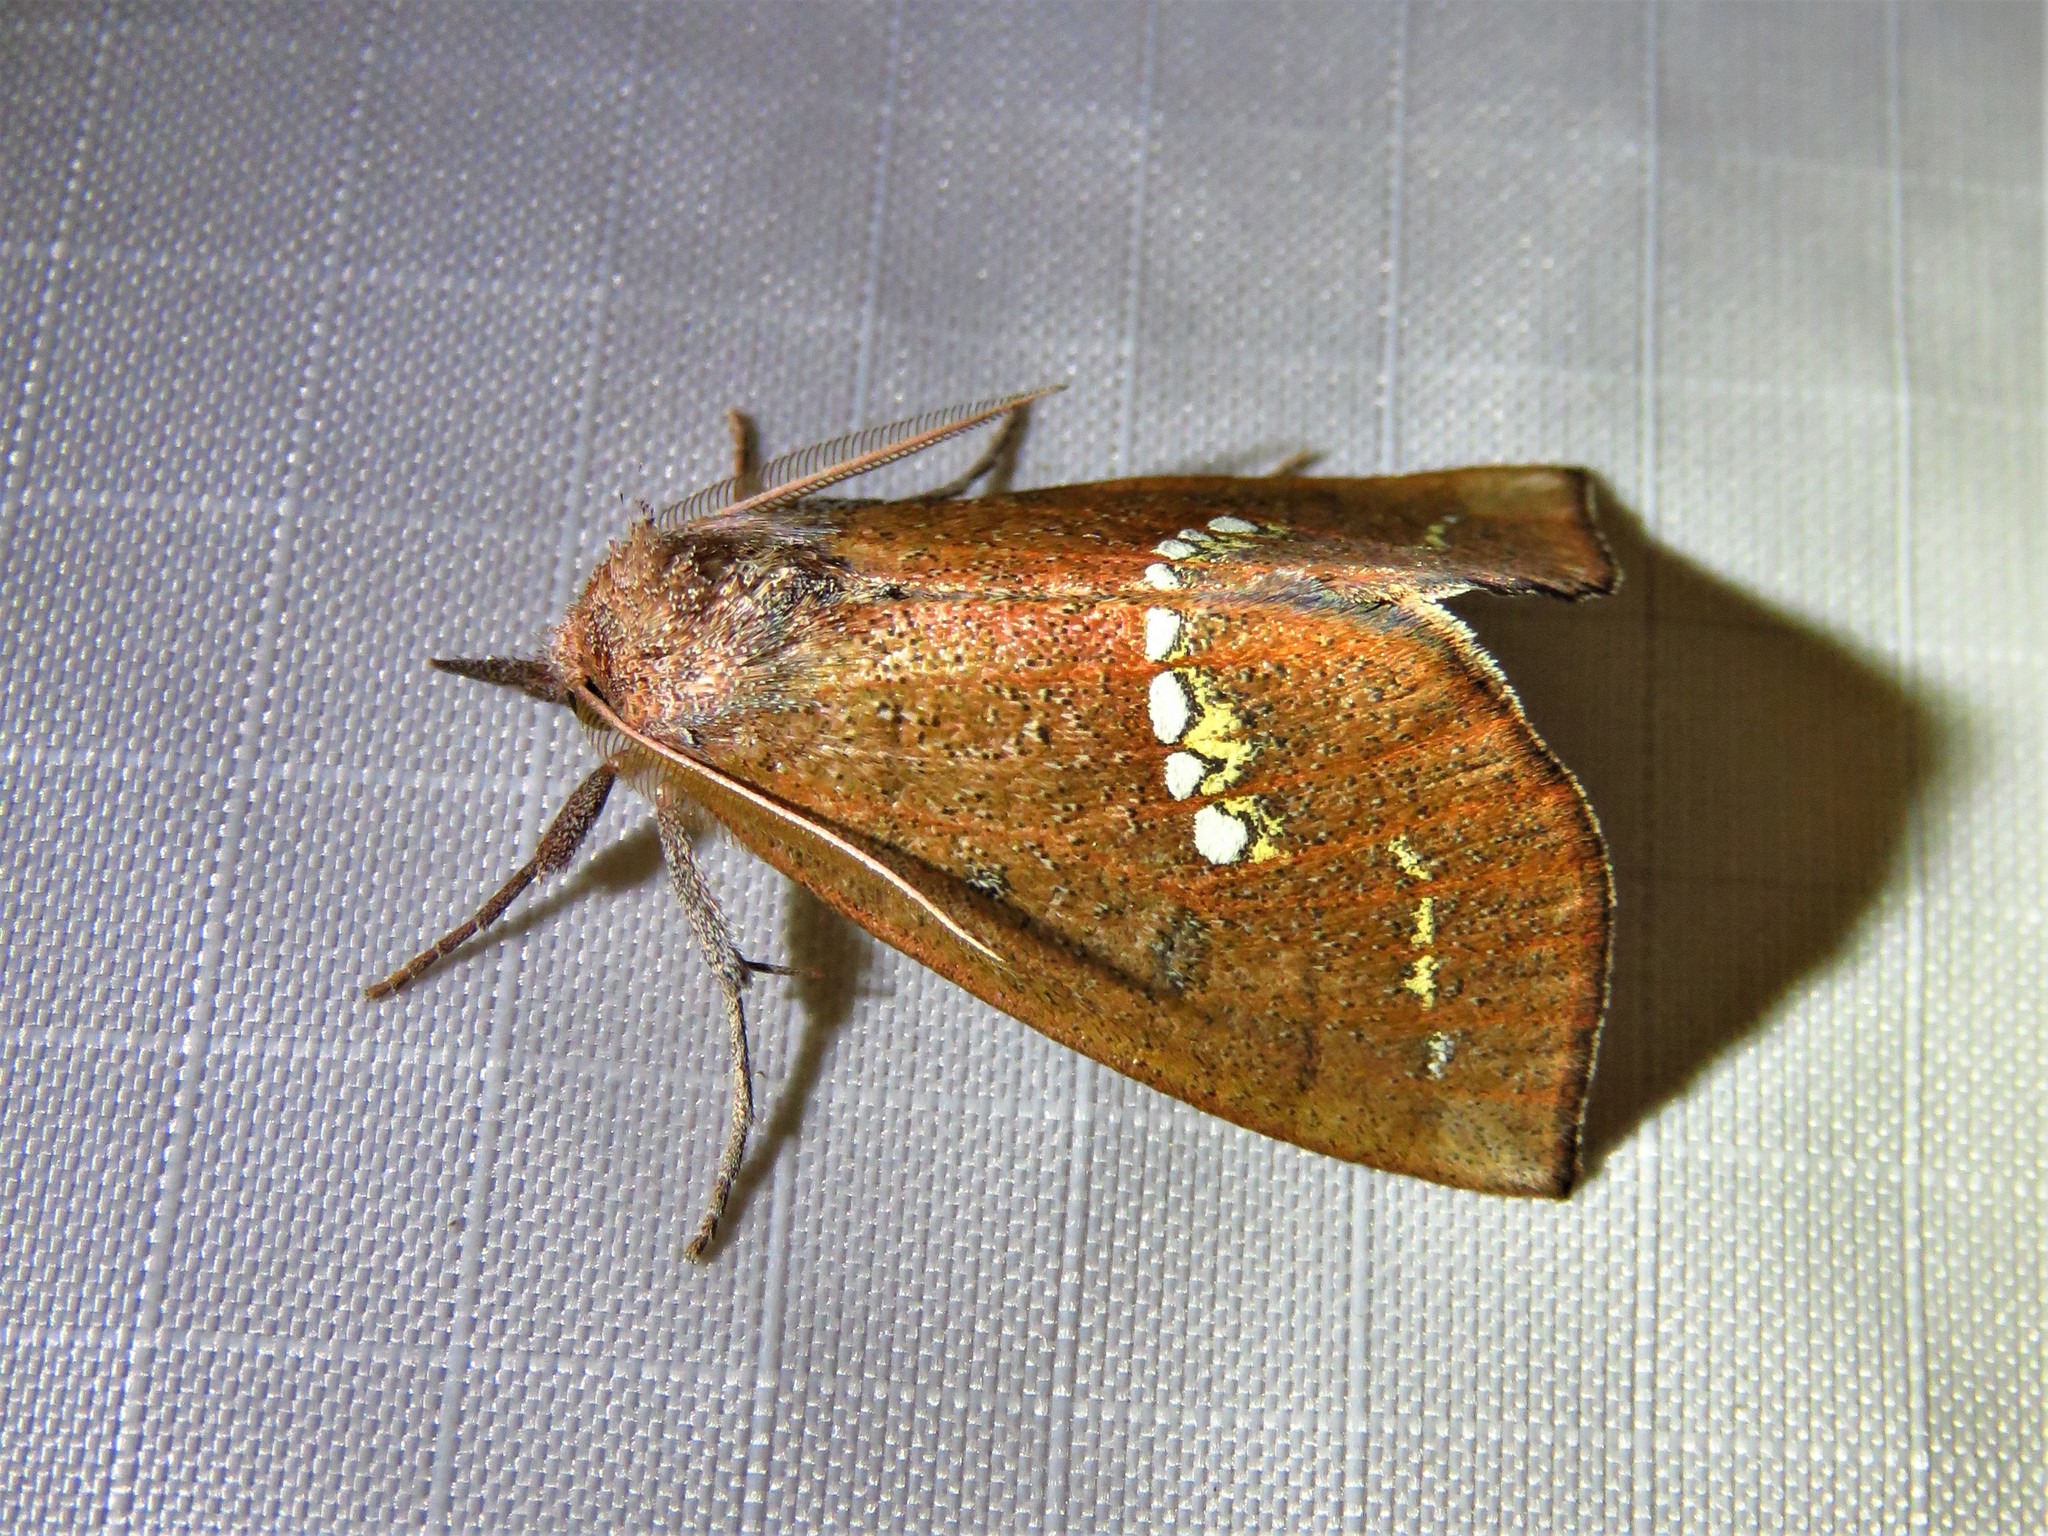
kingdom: Animalia
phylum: Arthropoda
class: Insecta
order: Lepidoptera
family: Erebidae
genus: Hypsoropha
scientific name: Hypsoropha monilis
